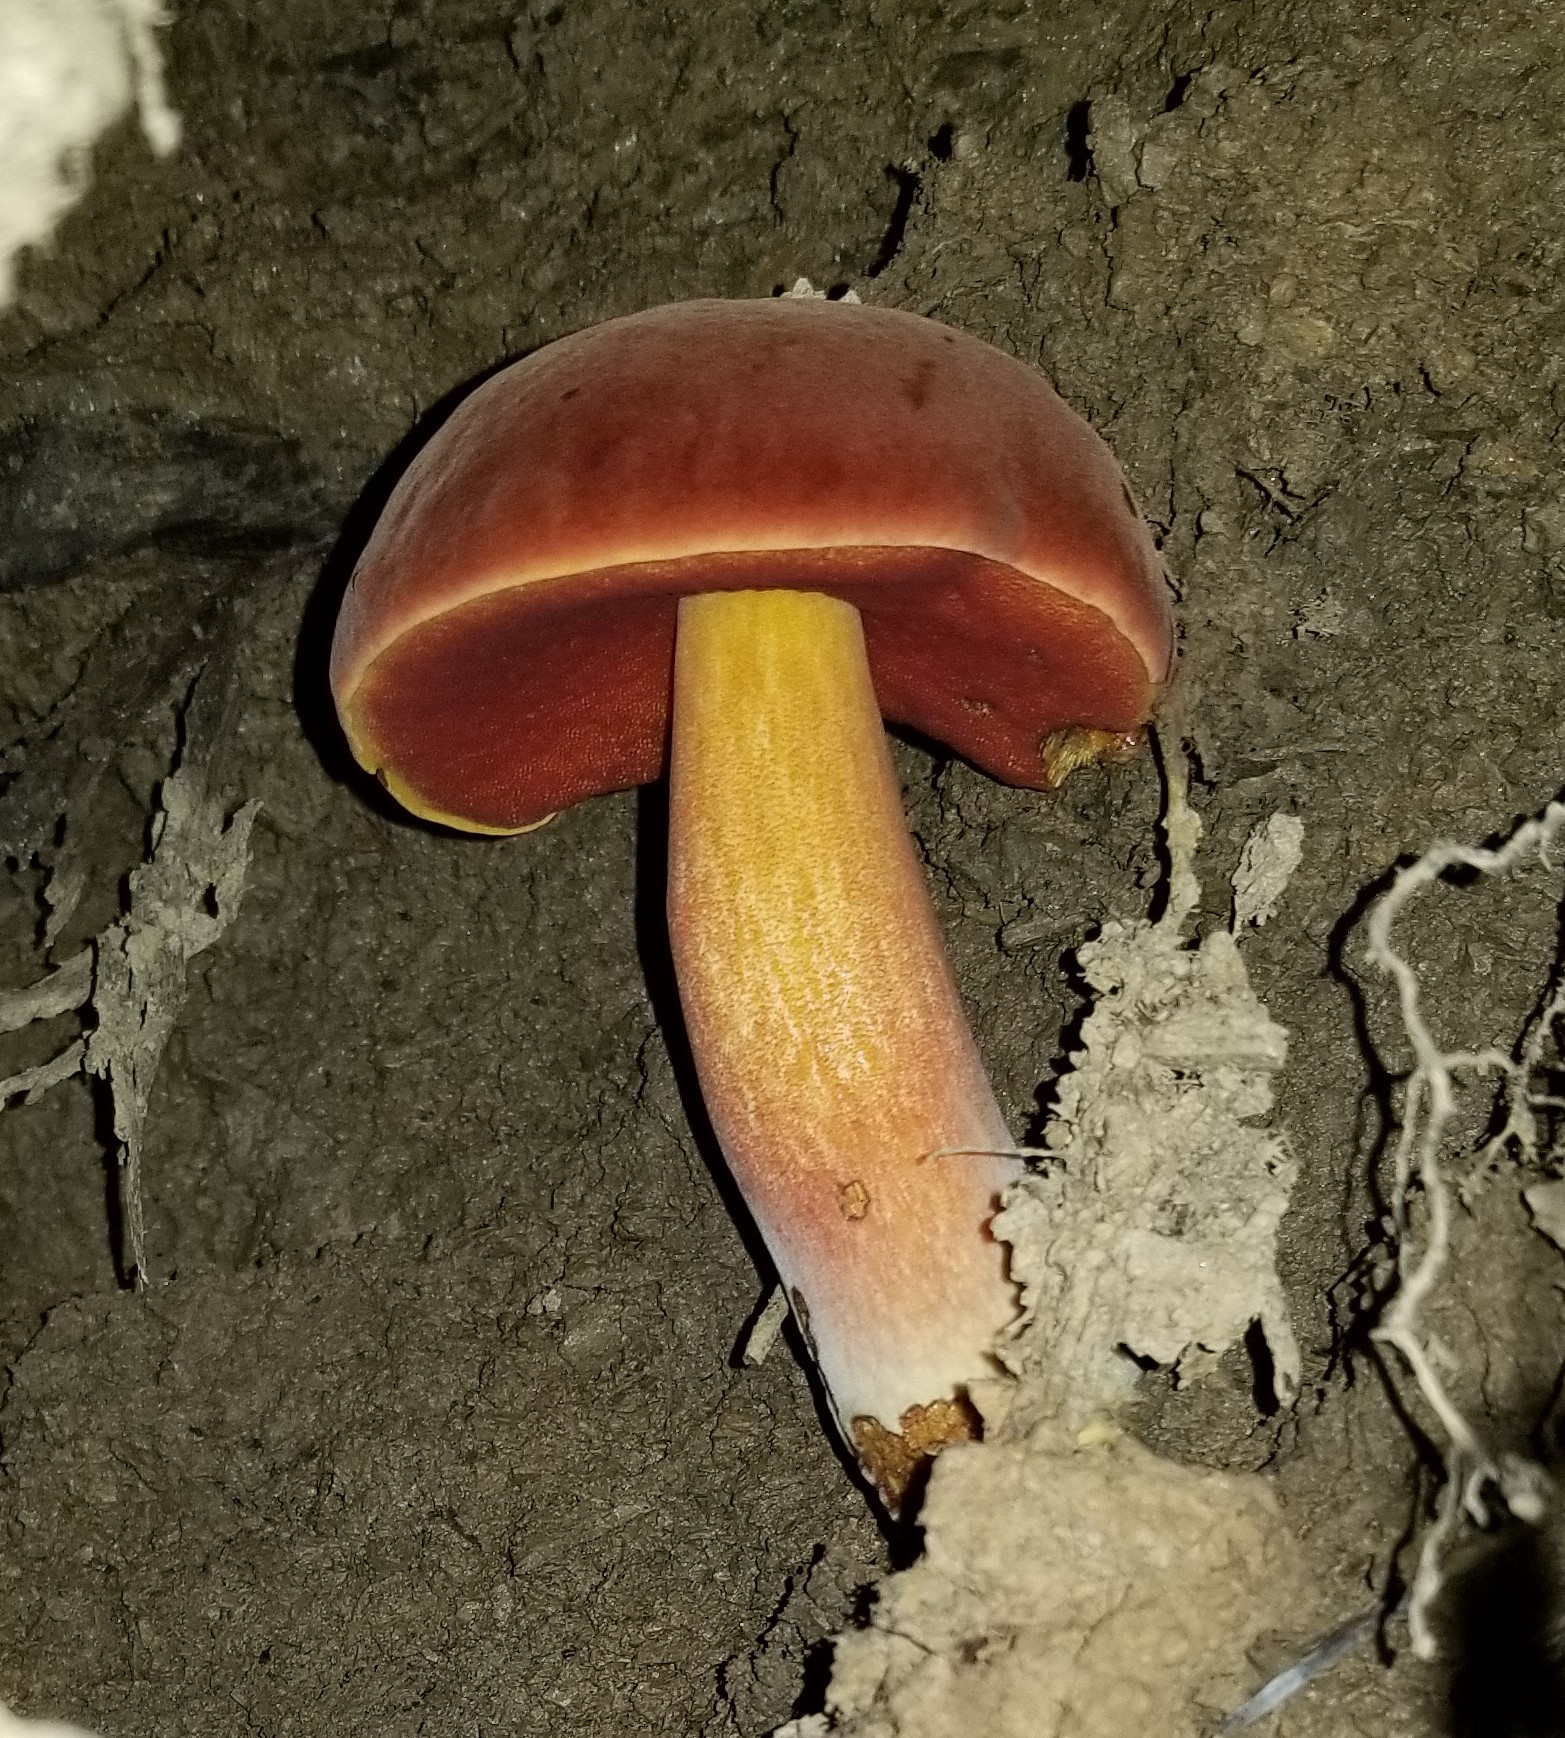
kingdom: Fungi
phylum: Basidiomycota
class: Agaricomycetes
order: Boletales
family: Boletaceae
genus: Boletus
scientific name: Boletus subvelutipes
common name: Red-mouth bolete
